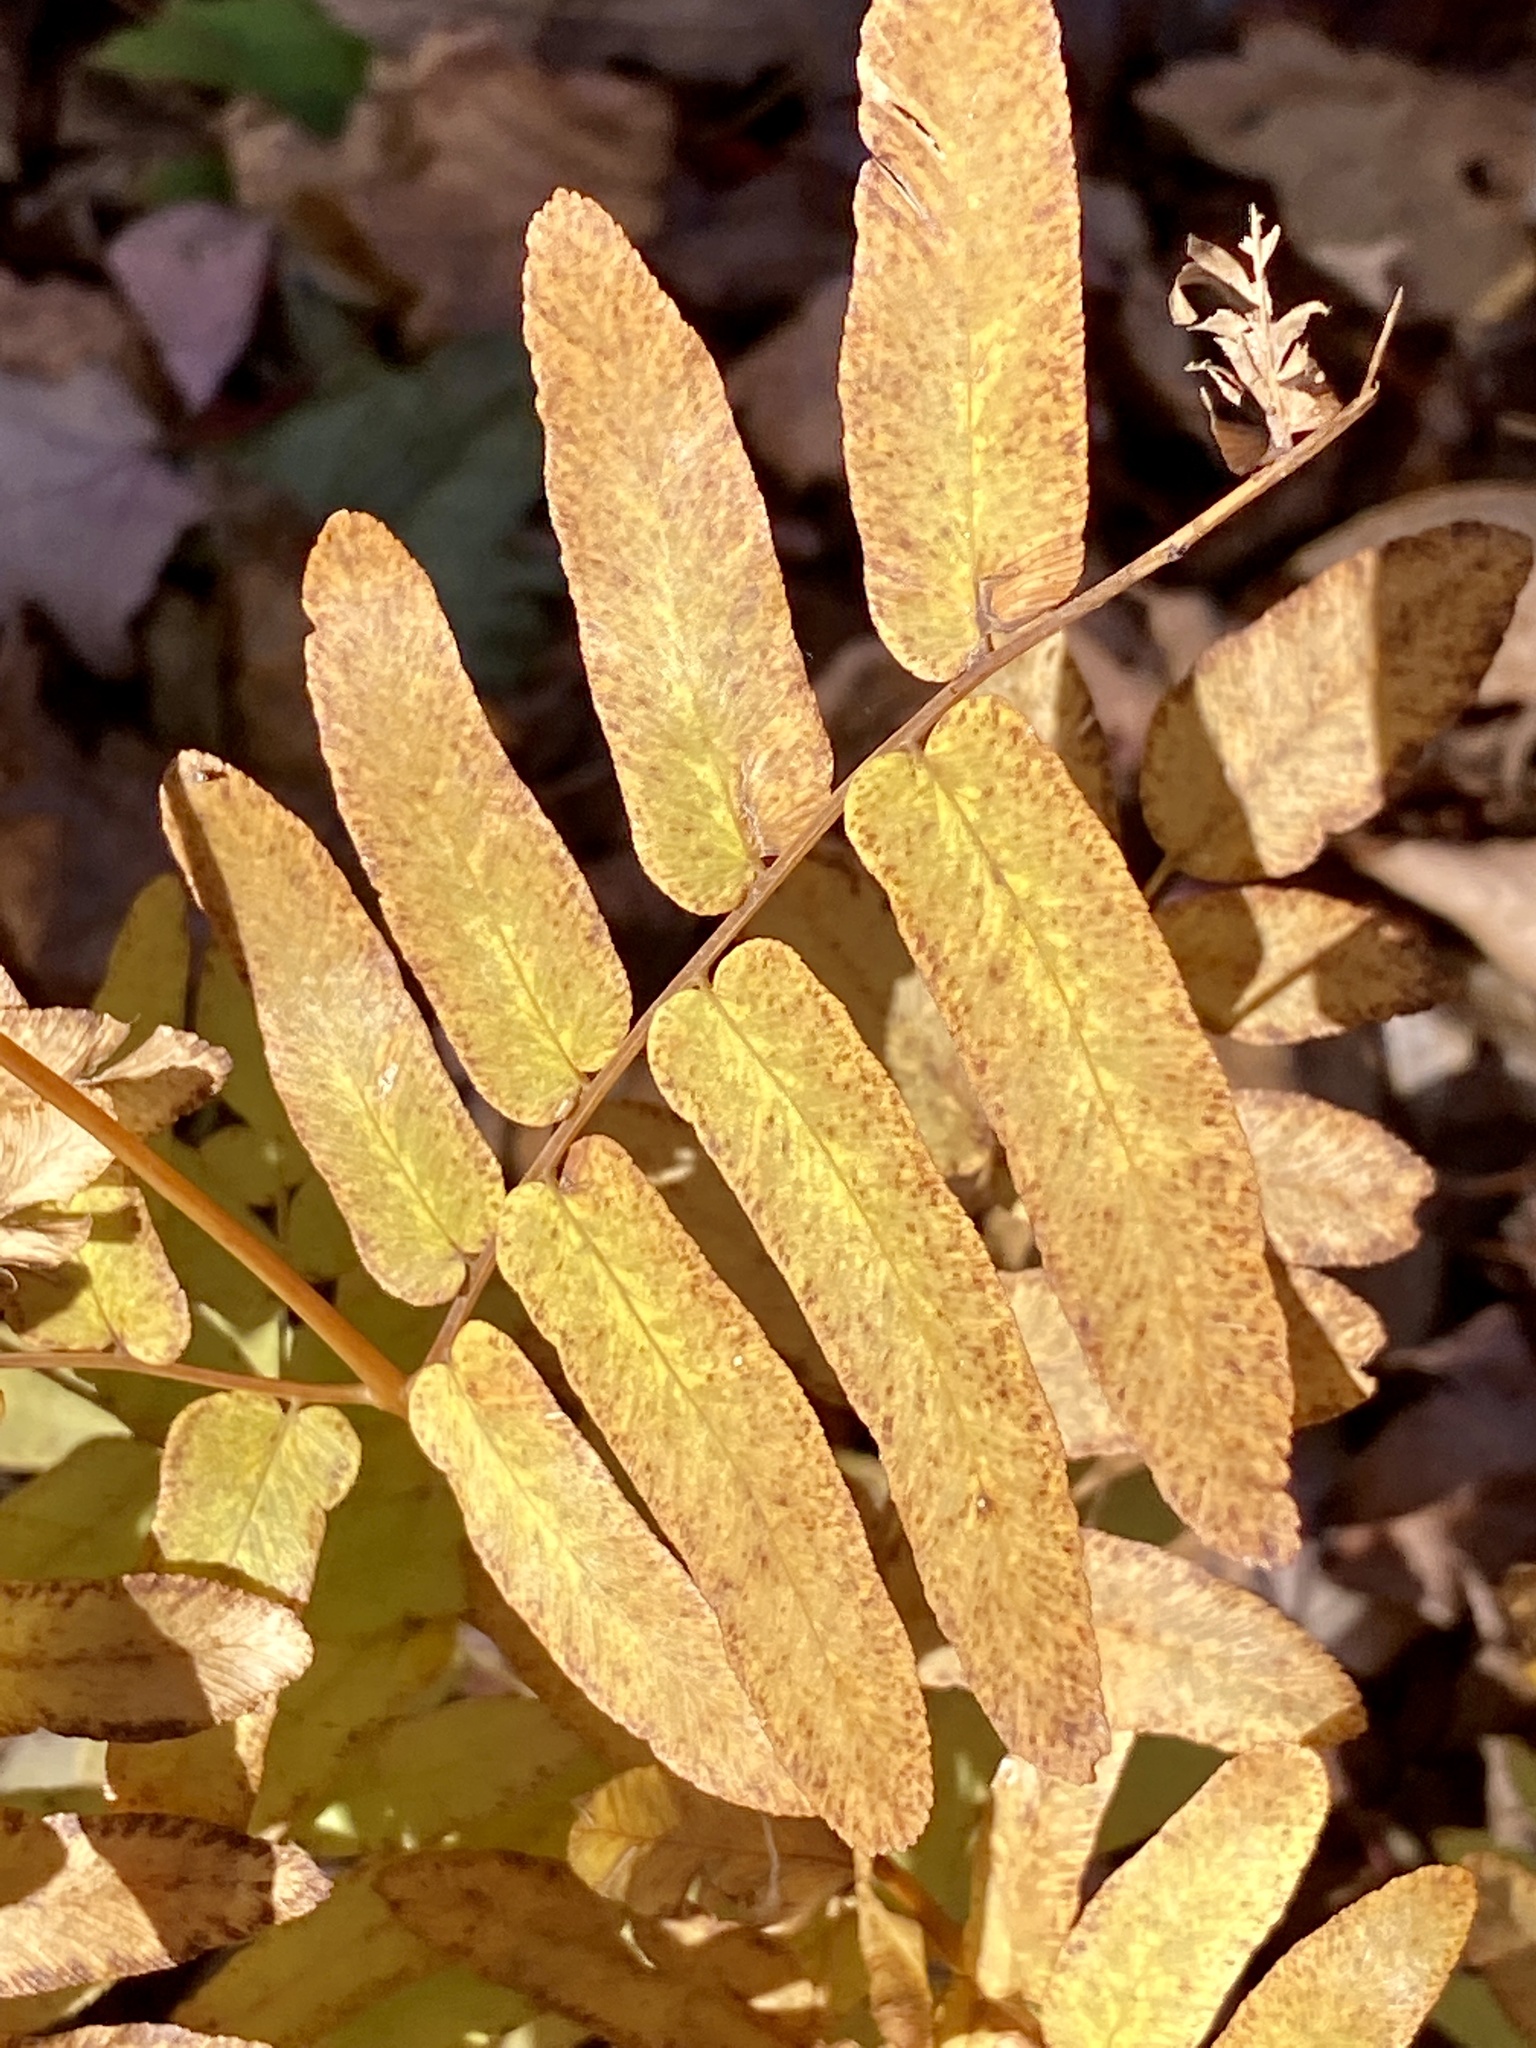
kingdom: Plantae
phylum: Tracheophyta
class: Polypodiopsida
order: Osmundales
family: Osmundaceae
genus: Osmunda
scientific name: Osmunda spectabilis
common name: American royal fern
